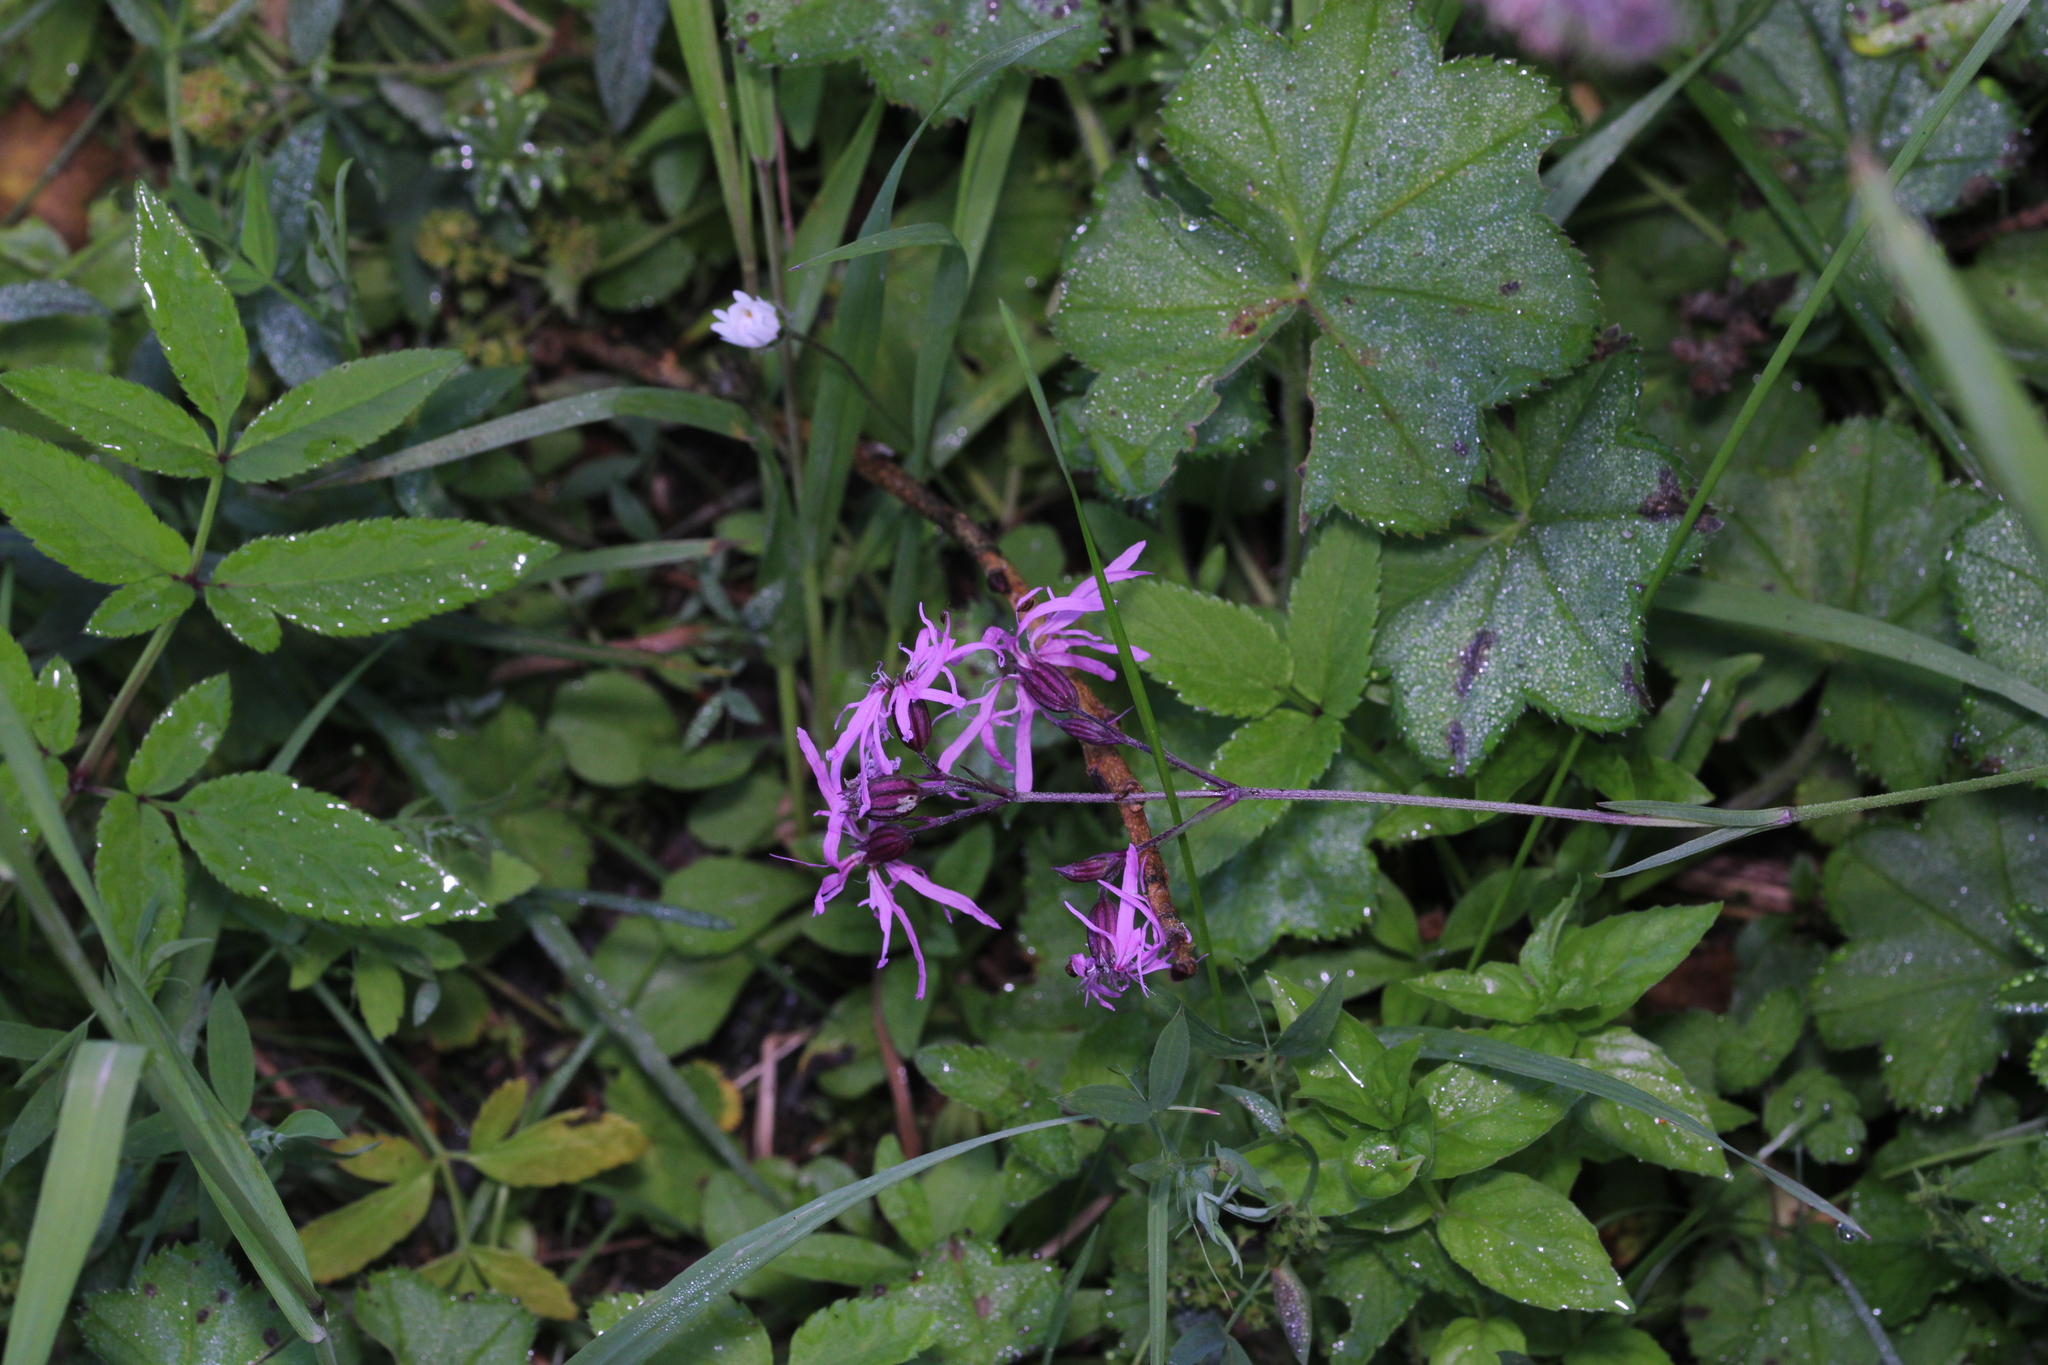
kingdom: Plantae
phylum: Tracheophyta
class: Magnoliopsida
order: Caryophyllales
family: Caryophyllaceae
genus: Silene
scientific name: Silene flos-cuculi
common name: Ragged-robin
